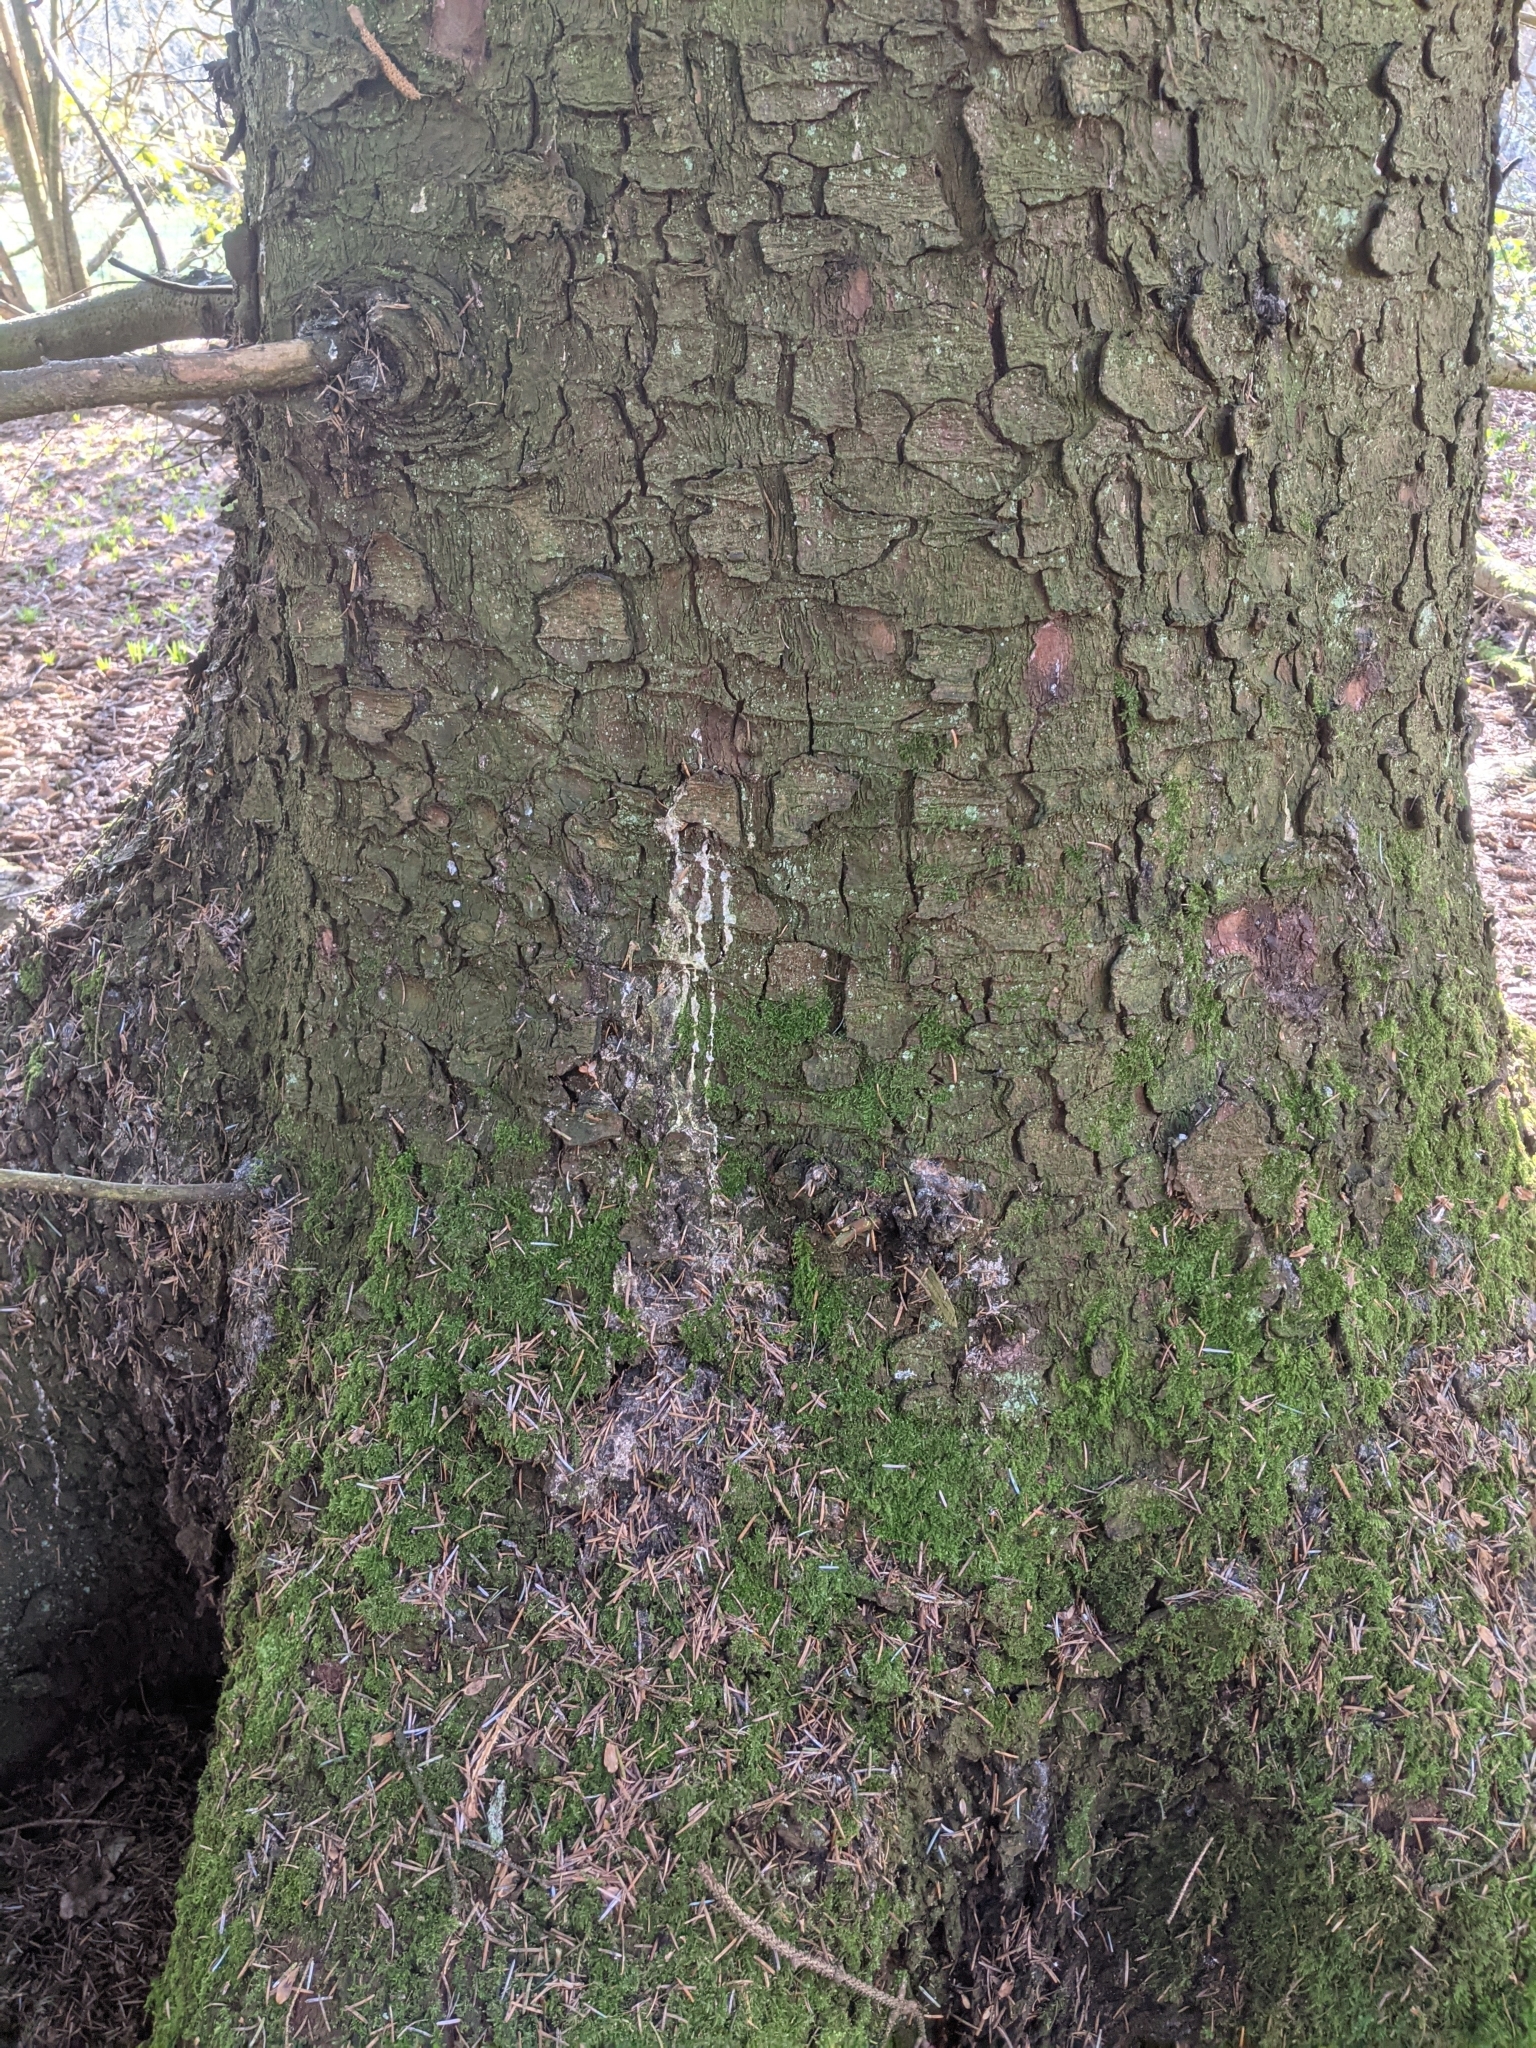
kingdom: Plantae
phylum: Tracheophyta
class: Pinopsida
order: Pinales
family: Pinaceae
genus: Picea
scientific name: Picea sitchensis
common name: Sitka spruce
